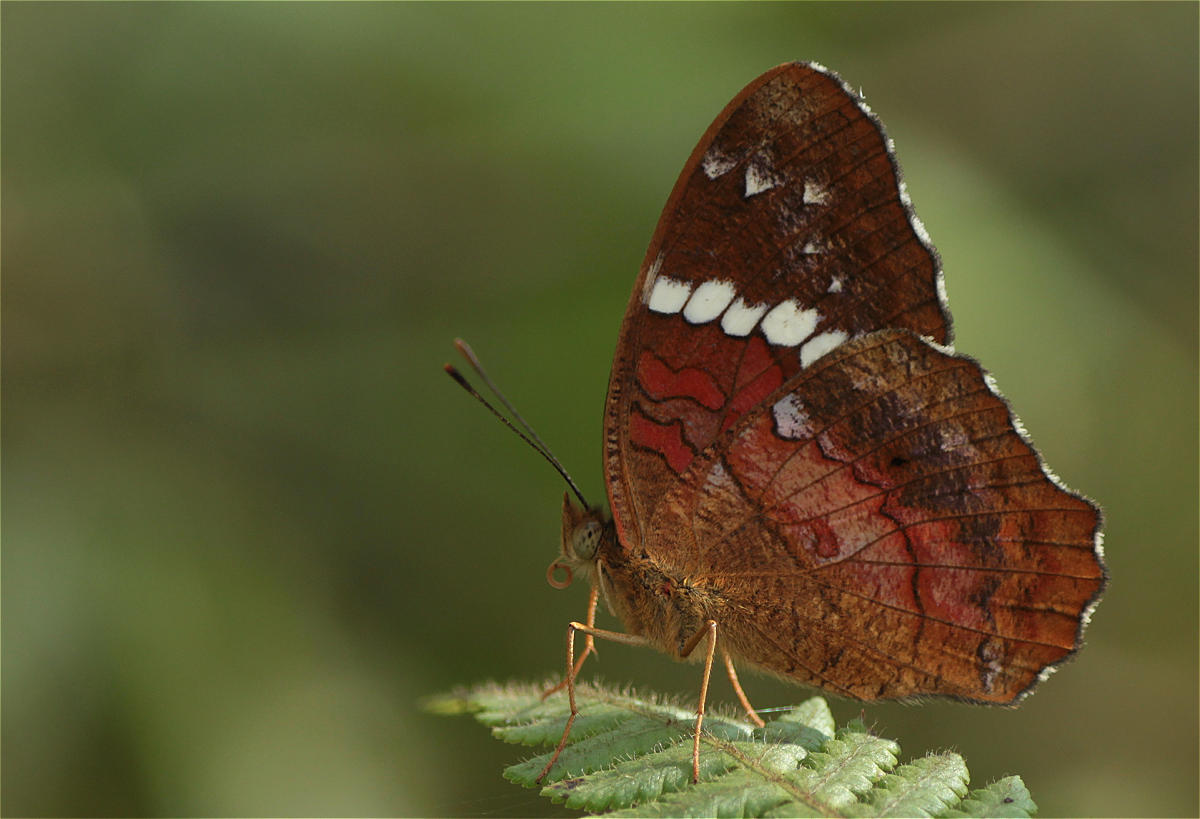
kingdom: Animalia
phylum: Arthropoda
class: Insecta
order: Lepidoptera
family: Nymphalidae
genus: Anartia
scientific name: Anartia amathea
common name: Red peacock
